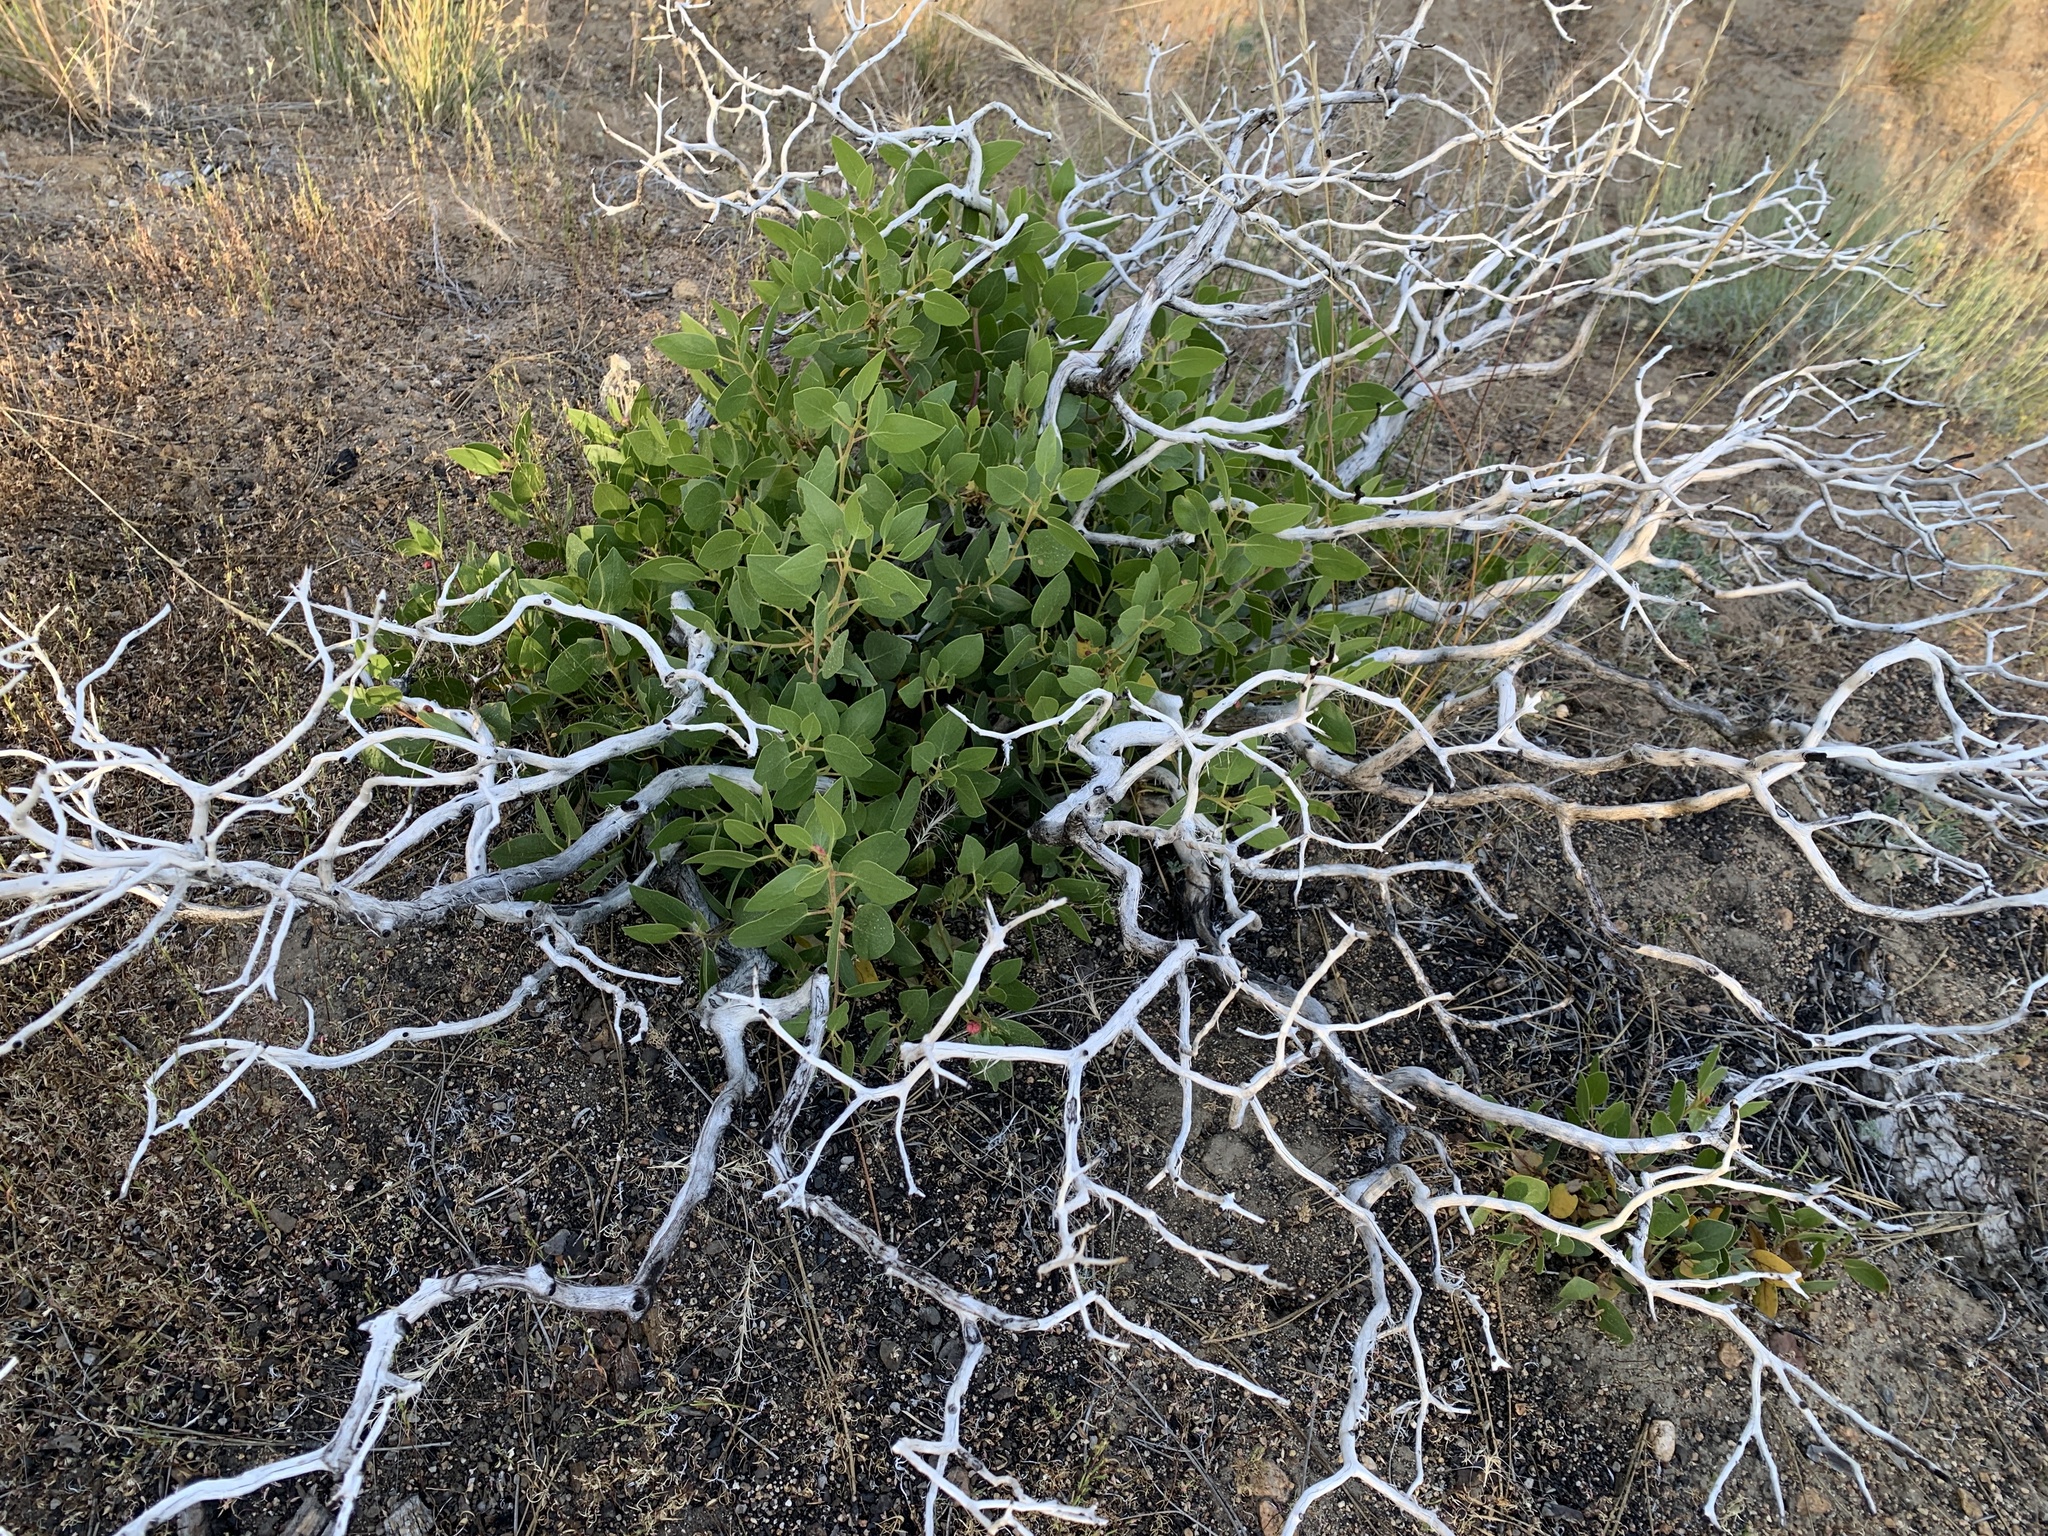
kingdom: Plantae
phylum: Tracheophyta
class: Magnoliopsida
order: Ericales
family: Ericaceae
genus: Arctostaphylos
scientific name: Arctostaphylos patula
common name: Green-leaf manzanita
